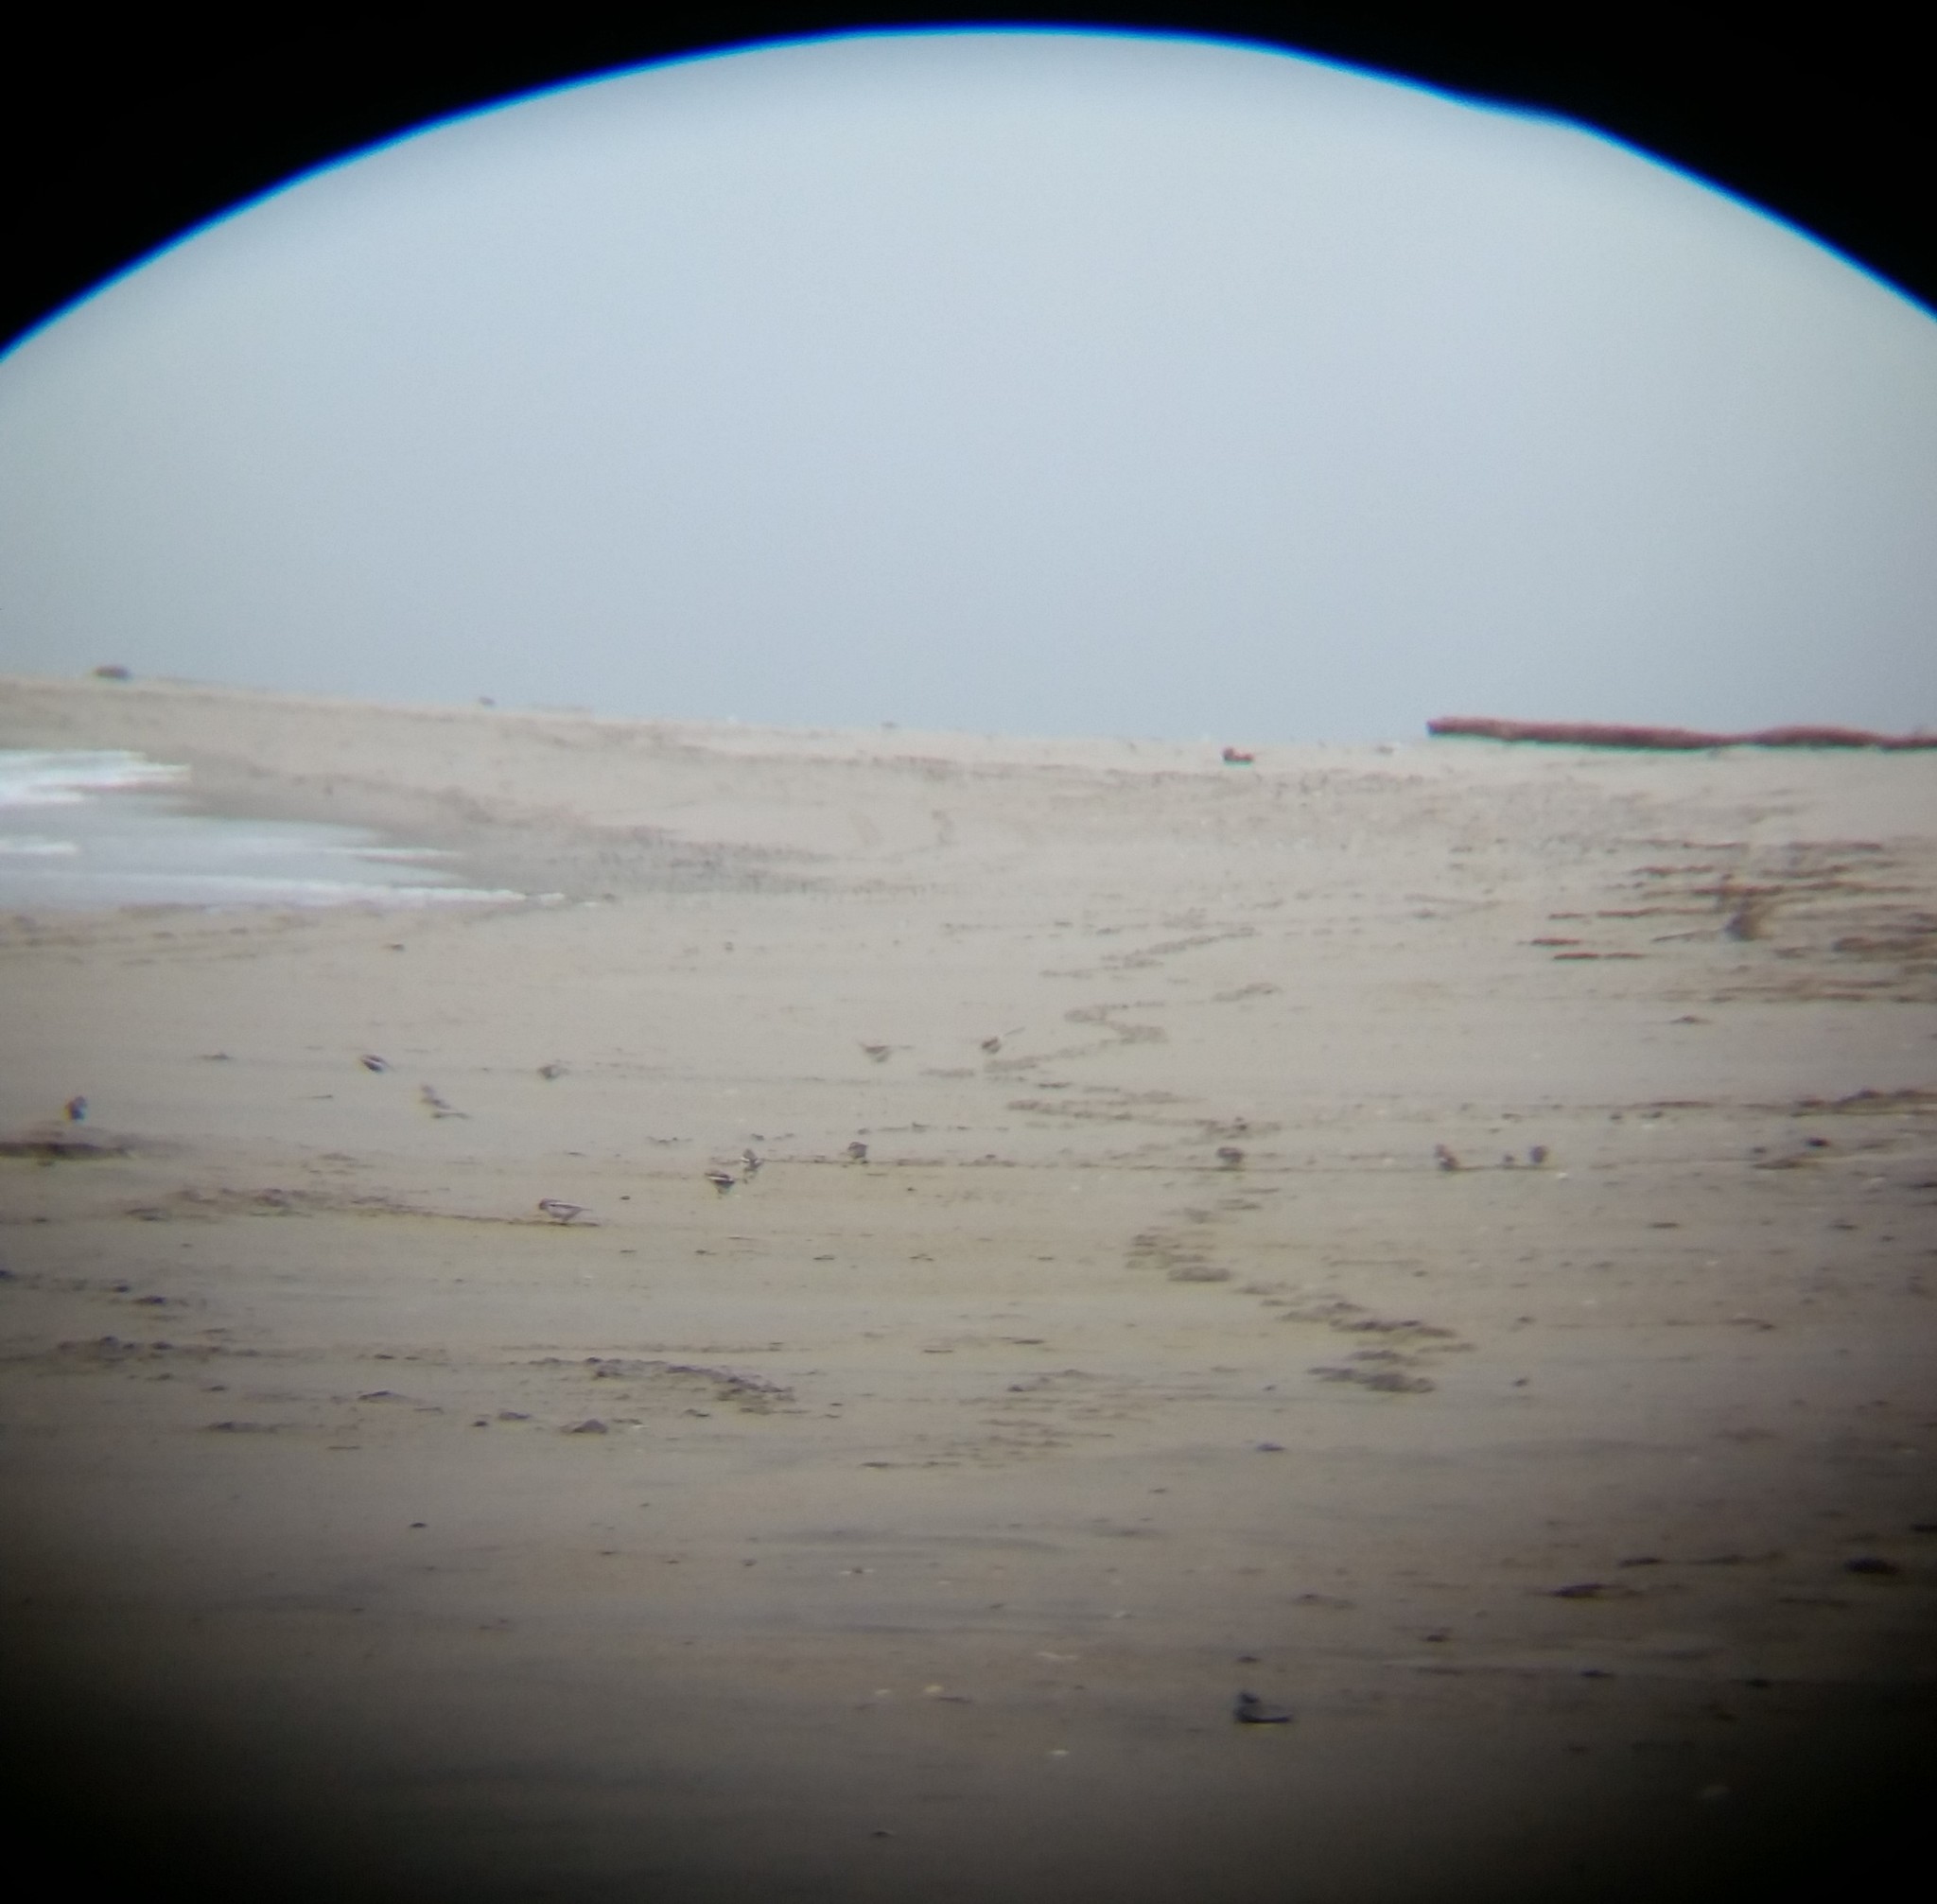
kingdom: Animalia
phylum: Chordata
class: Aves
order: Passeriformes
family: Calcariidae
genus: Plectrophenax
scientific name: Plectrophenax nivalis
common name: Snow bunting
